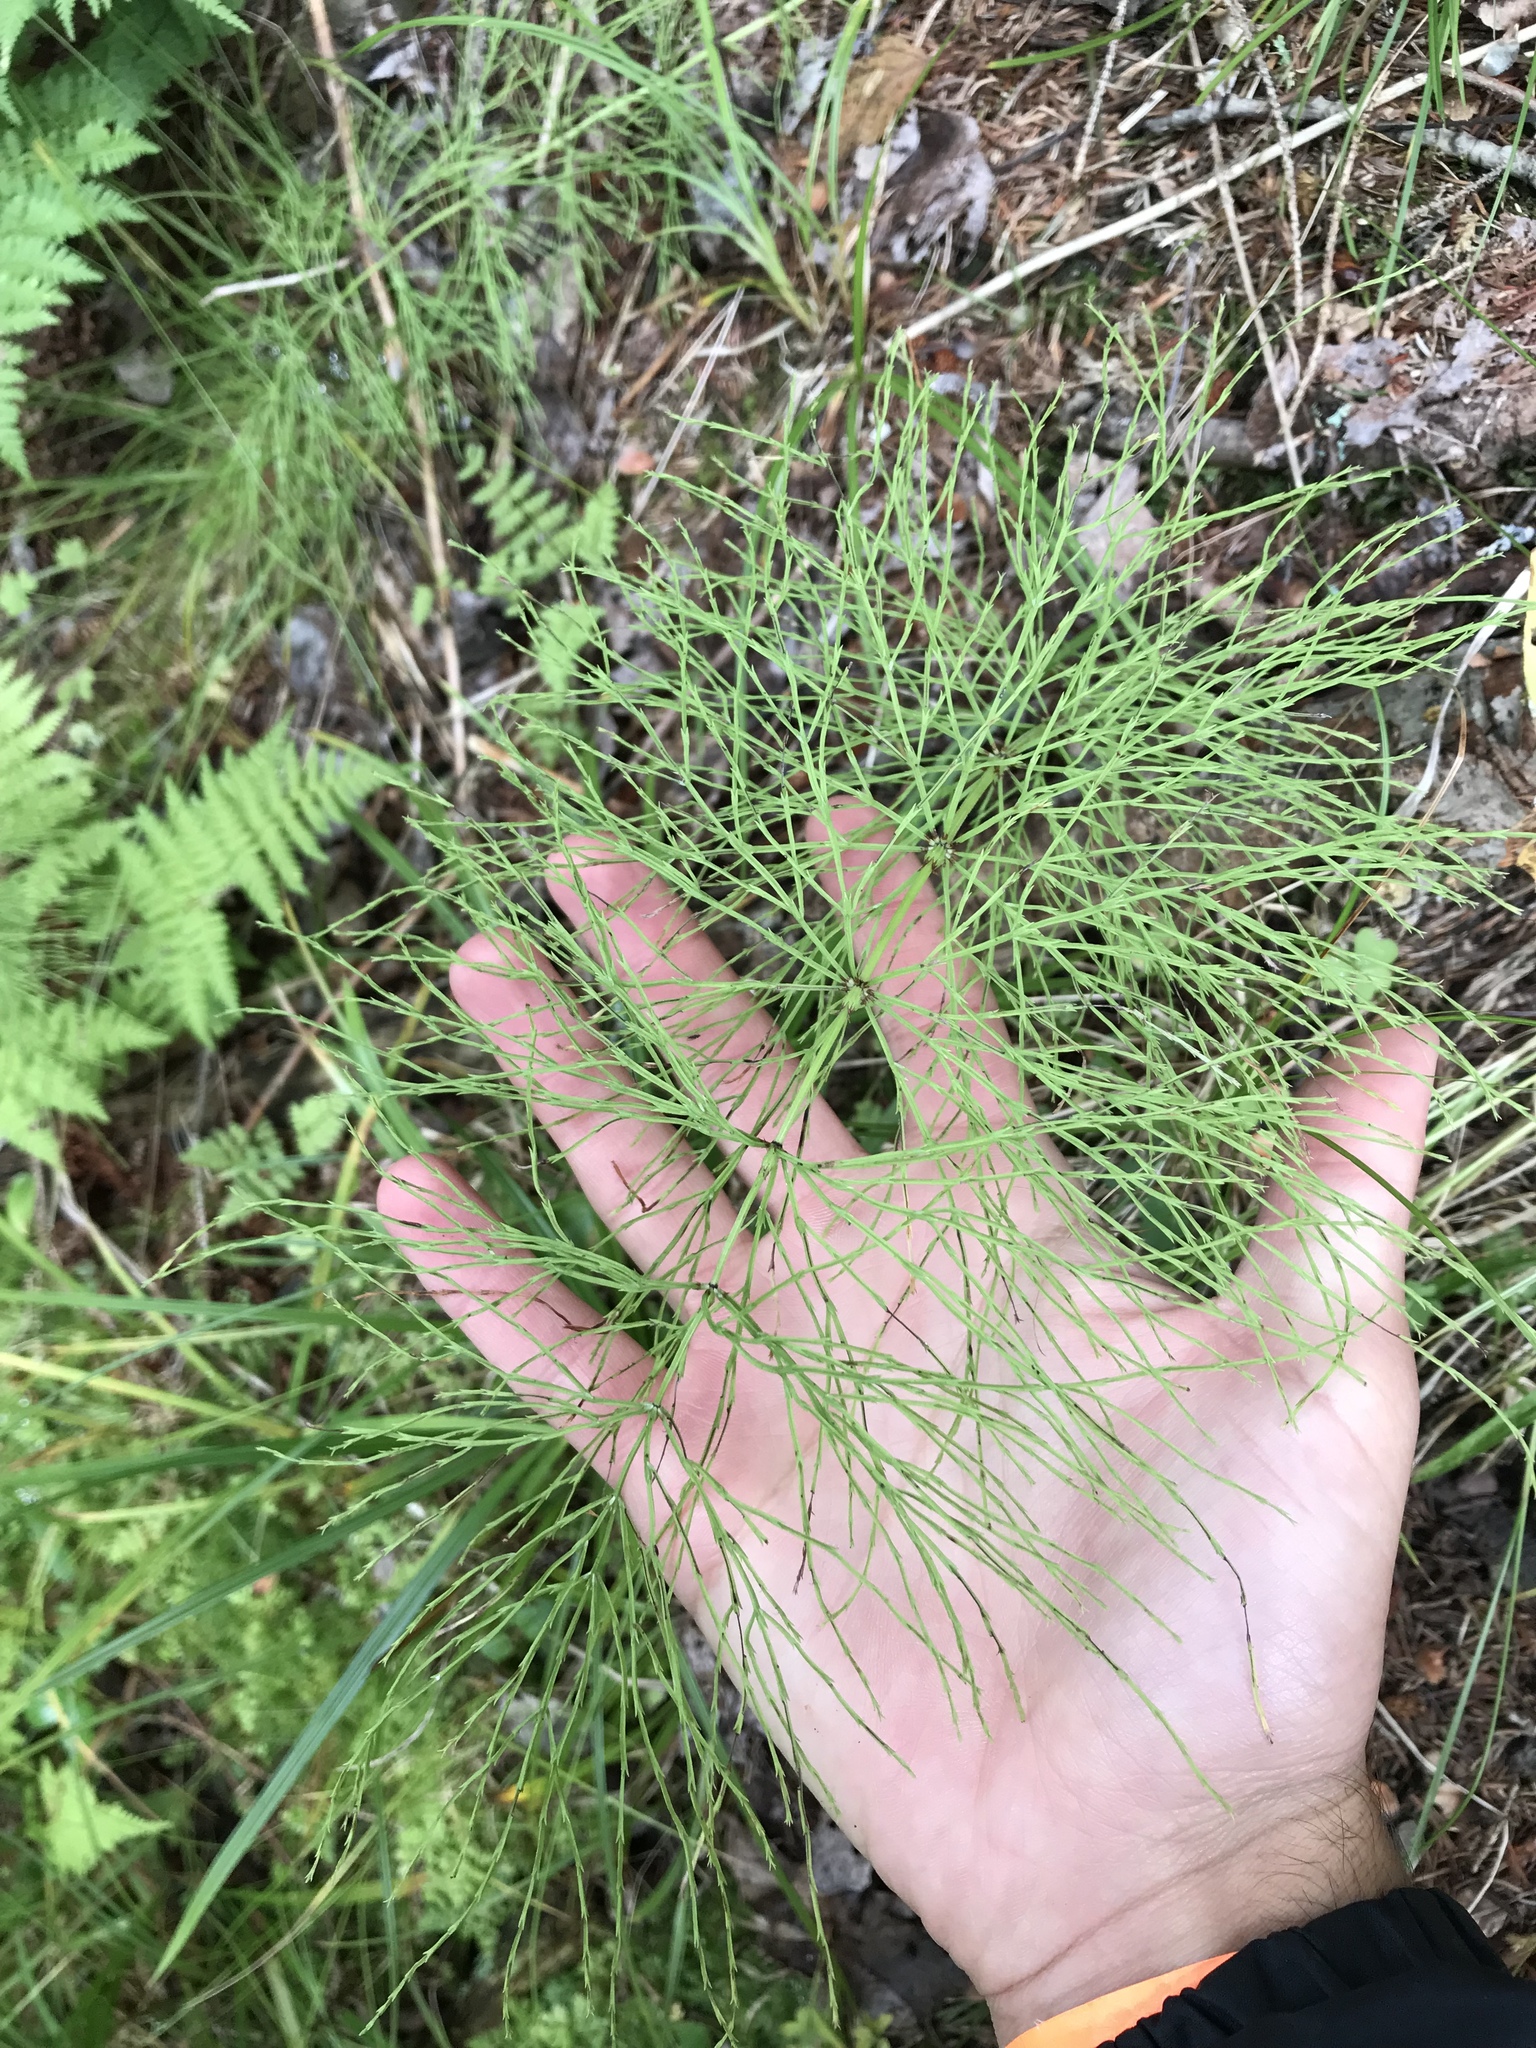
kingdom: Plantae
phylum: Tracheophyta
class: Polypodiopsida
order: Equisetales
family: Equisetaceae
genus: Equisetum
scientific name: Equisetum sylvaticum
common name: Wood horsetail
